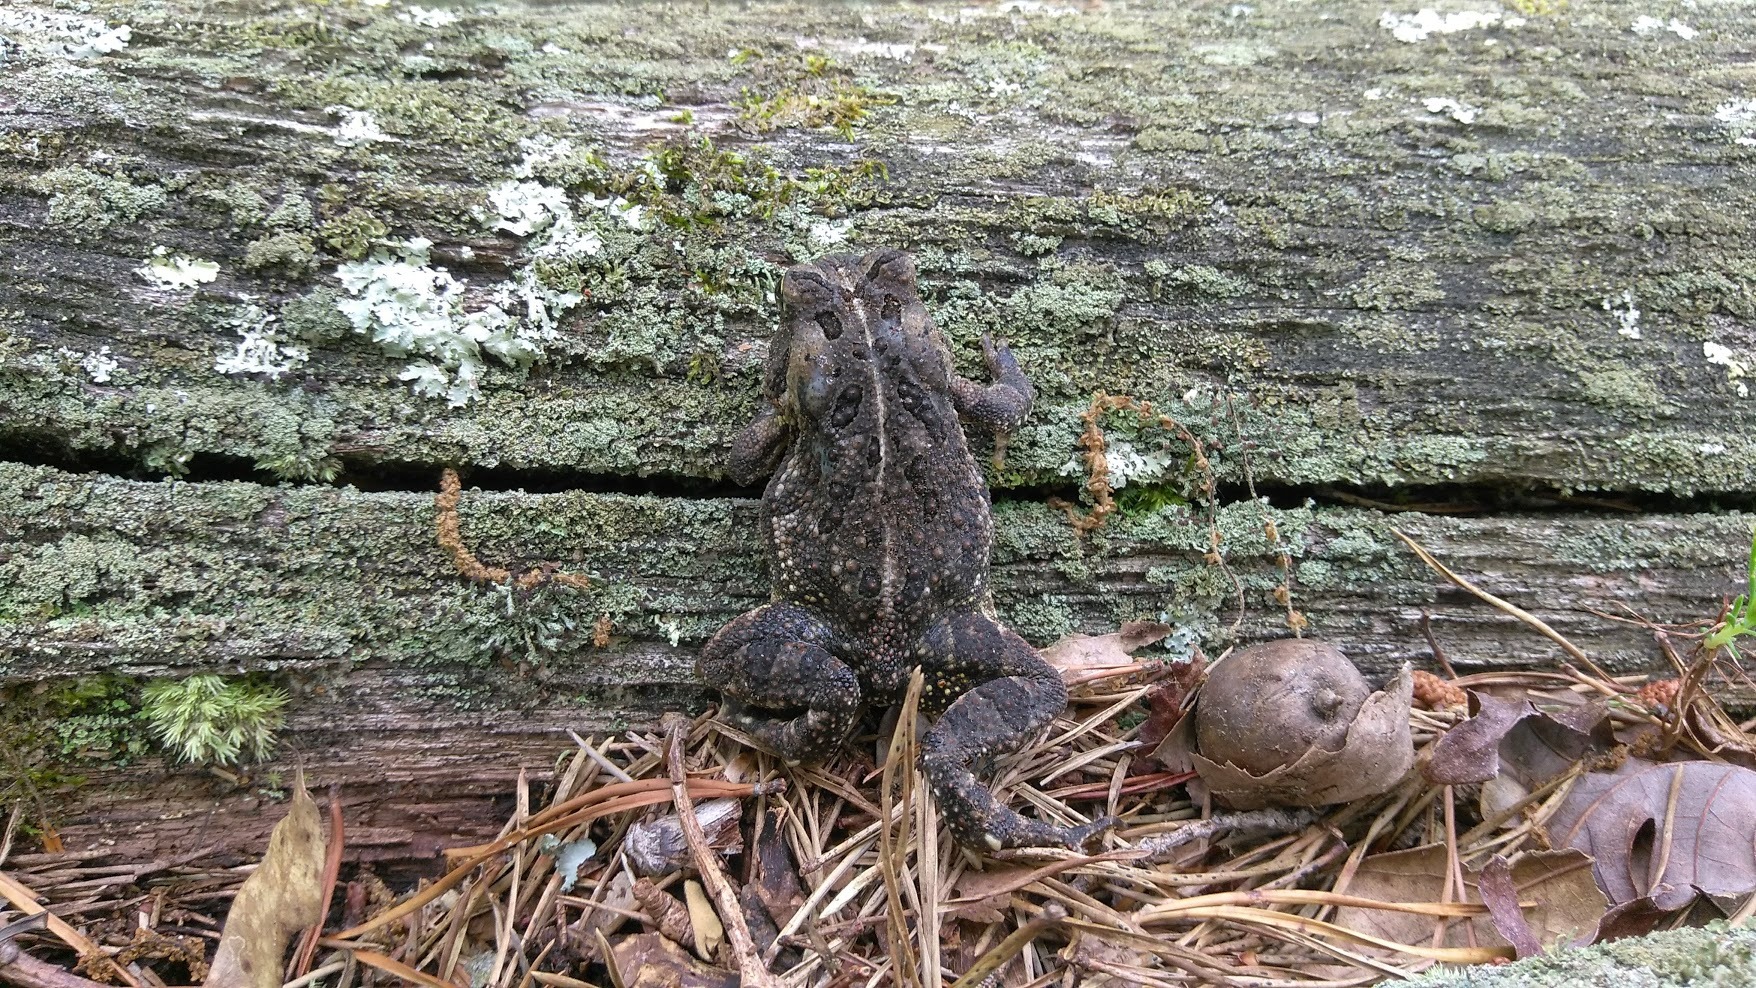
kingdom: Animalia
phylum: Chordata
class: Amphibia
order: Anura
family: Bufonidae
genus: Anaxyrus
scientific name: Anaxyrus fowleri
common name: Fowler's toad
